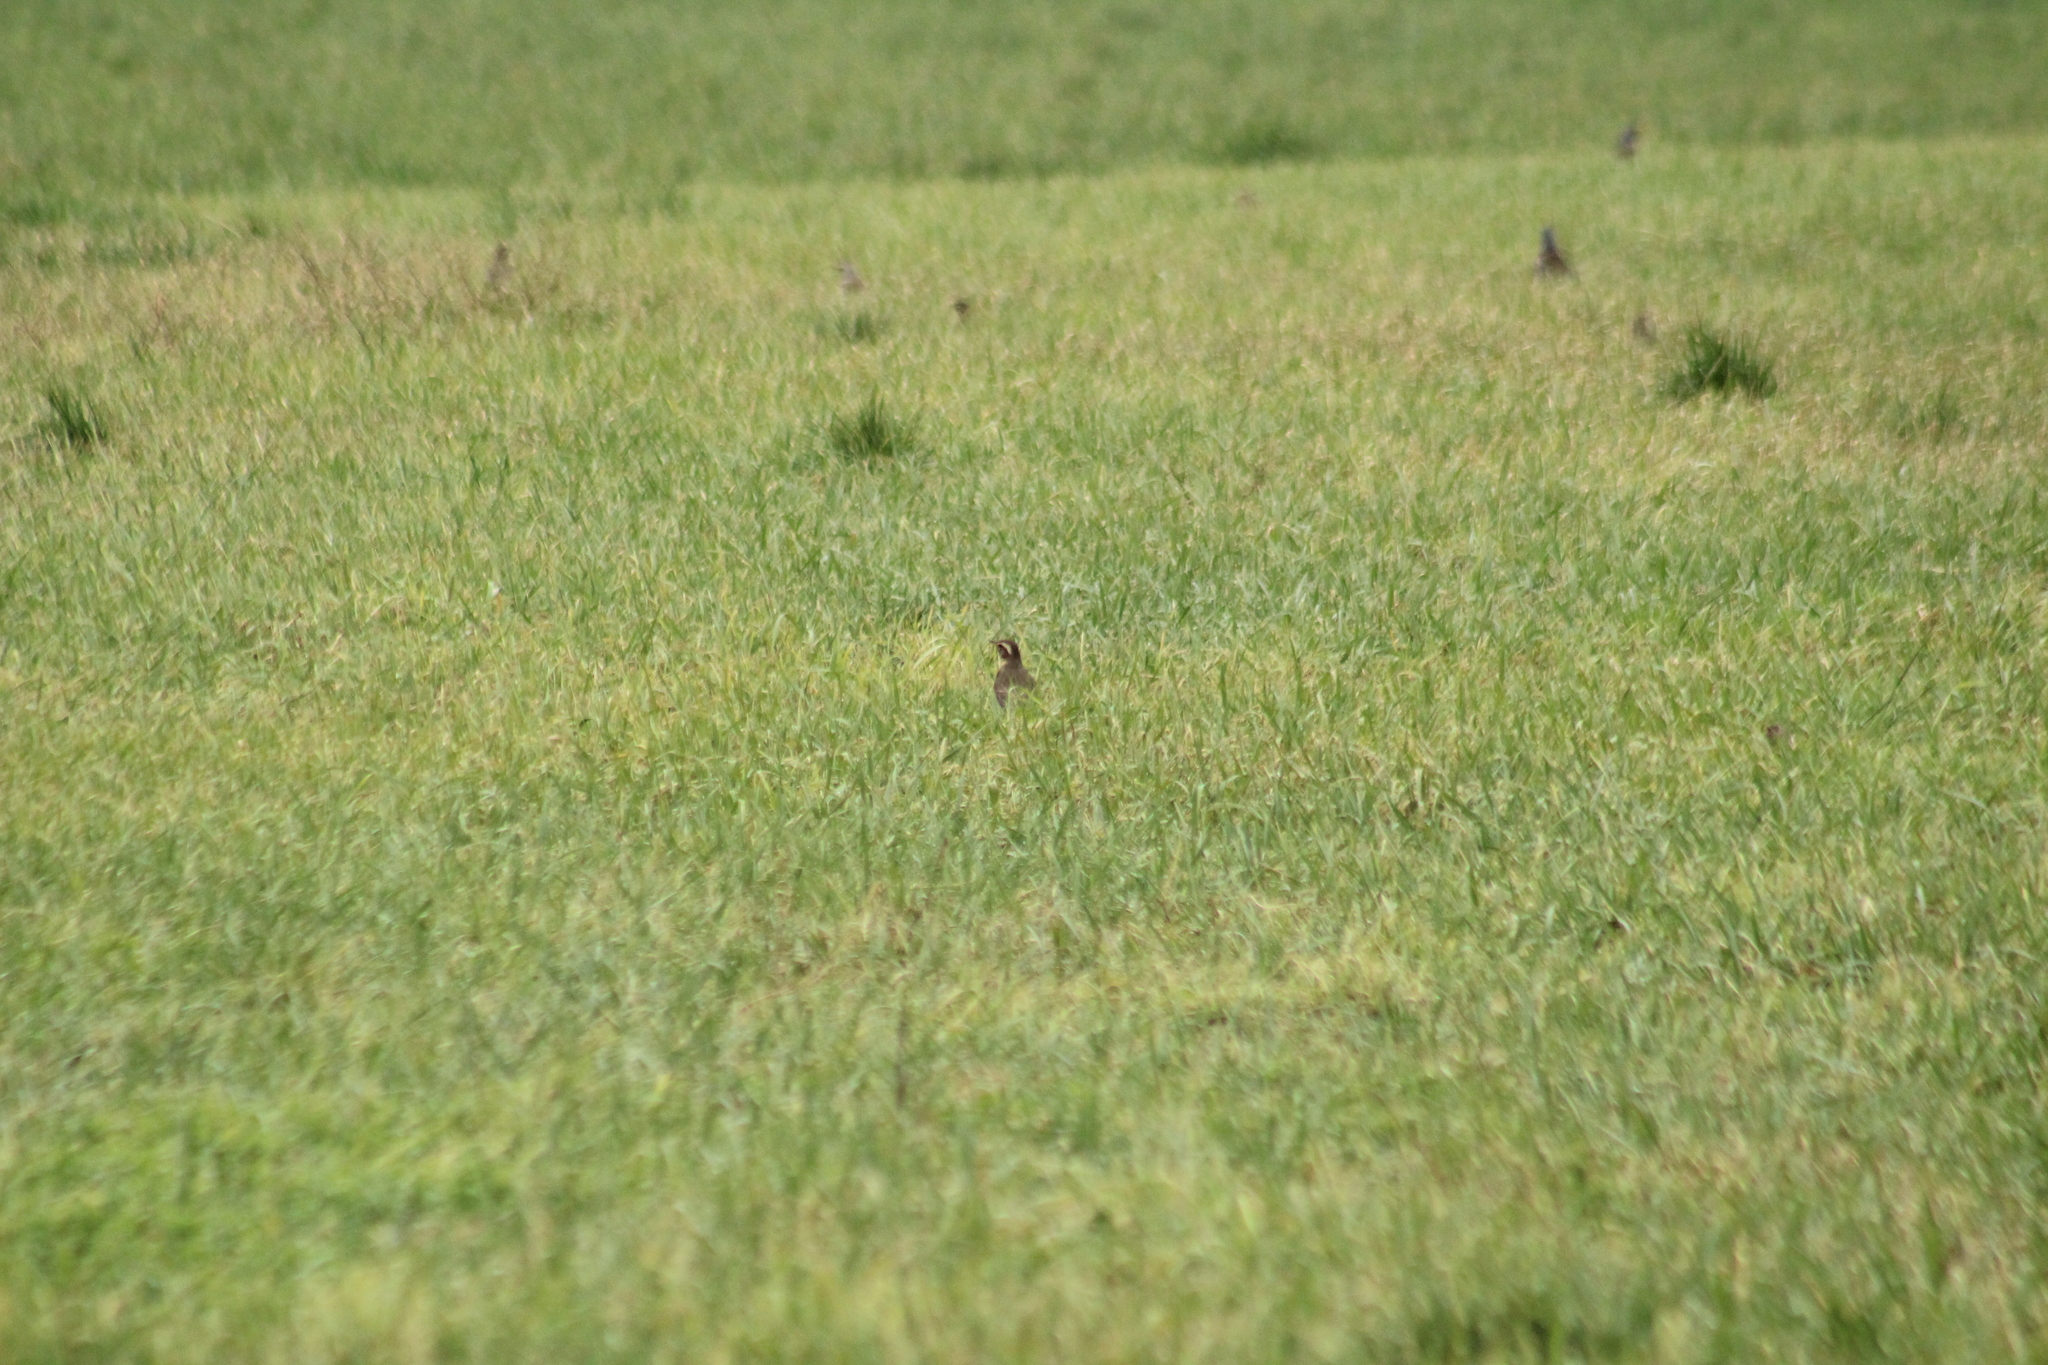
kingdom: Animalia
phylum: Chordata
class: Aves
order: Passeriformes
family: Turdidae
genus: Turdus
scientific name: Turdus iliacus
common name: Redwing
